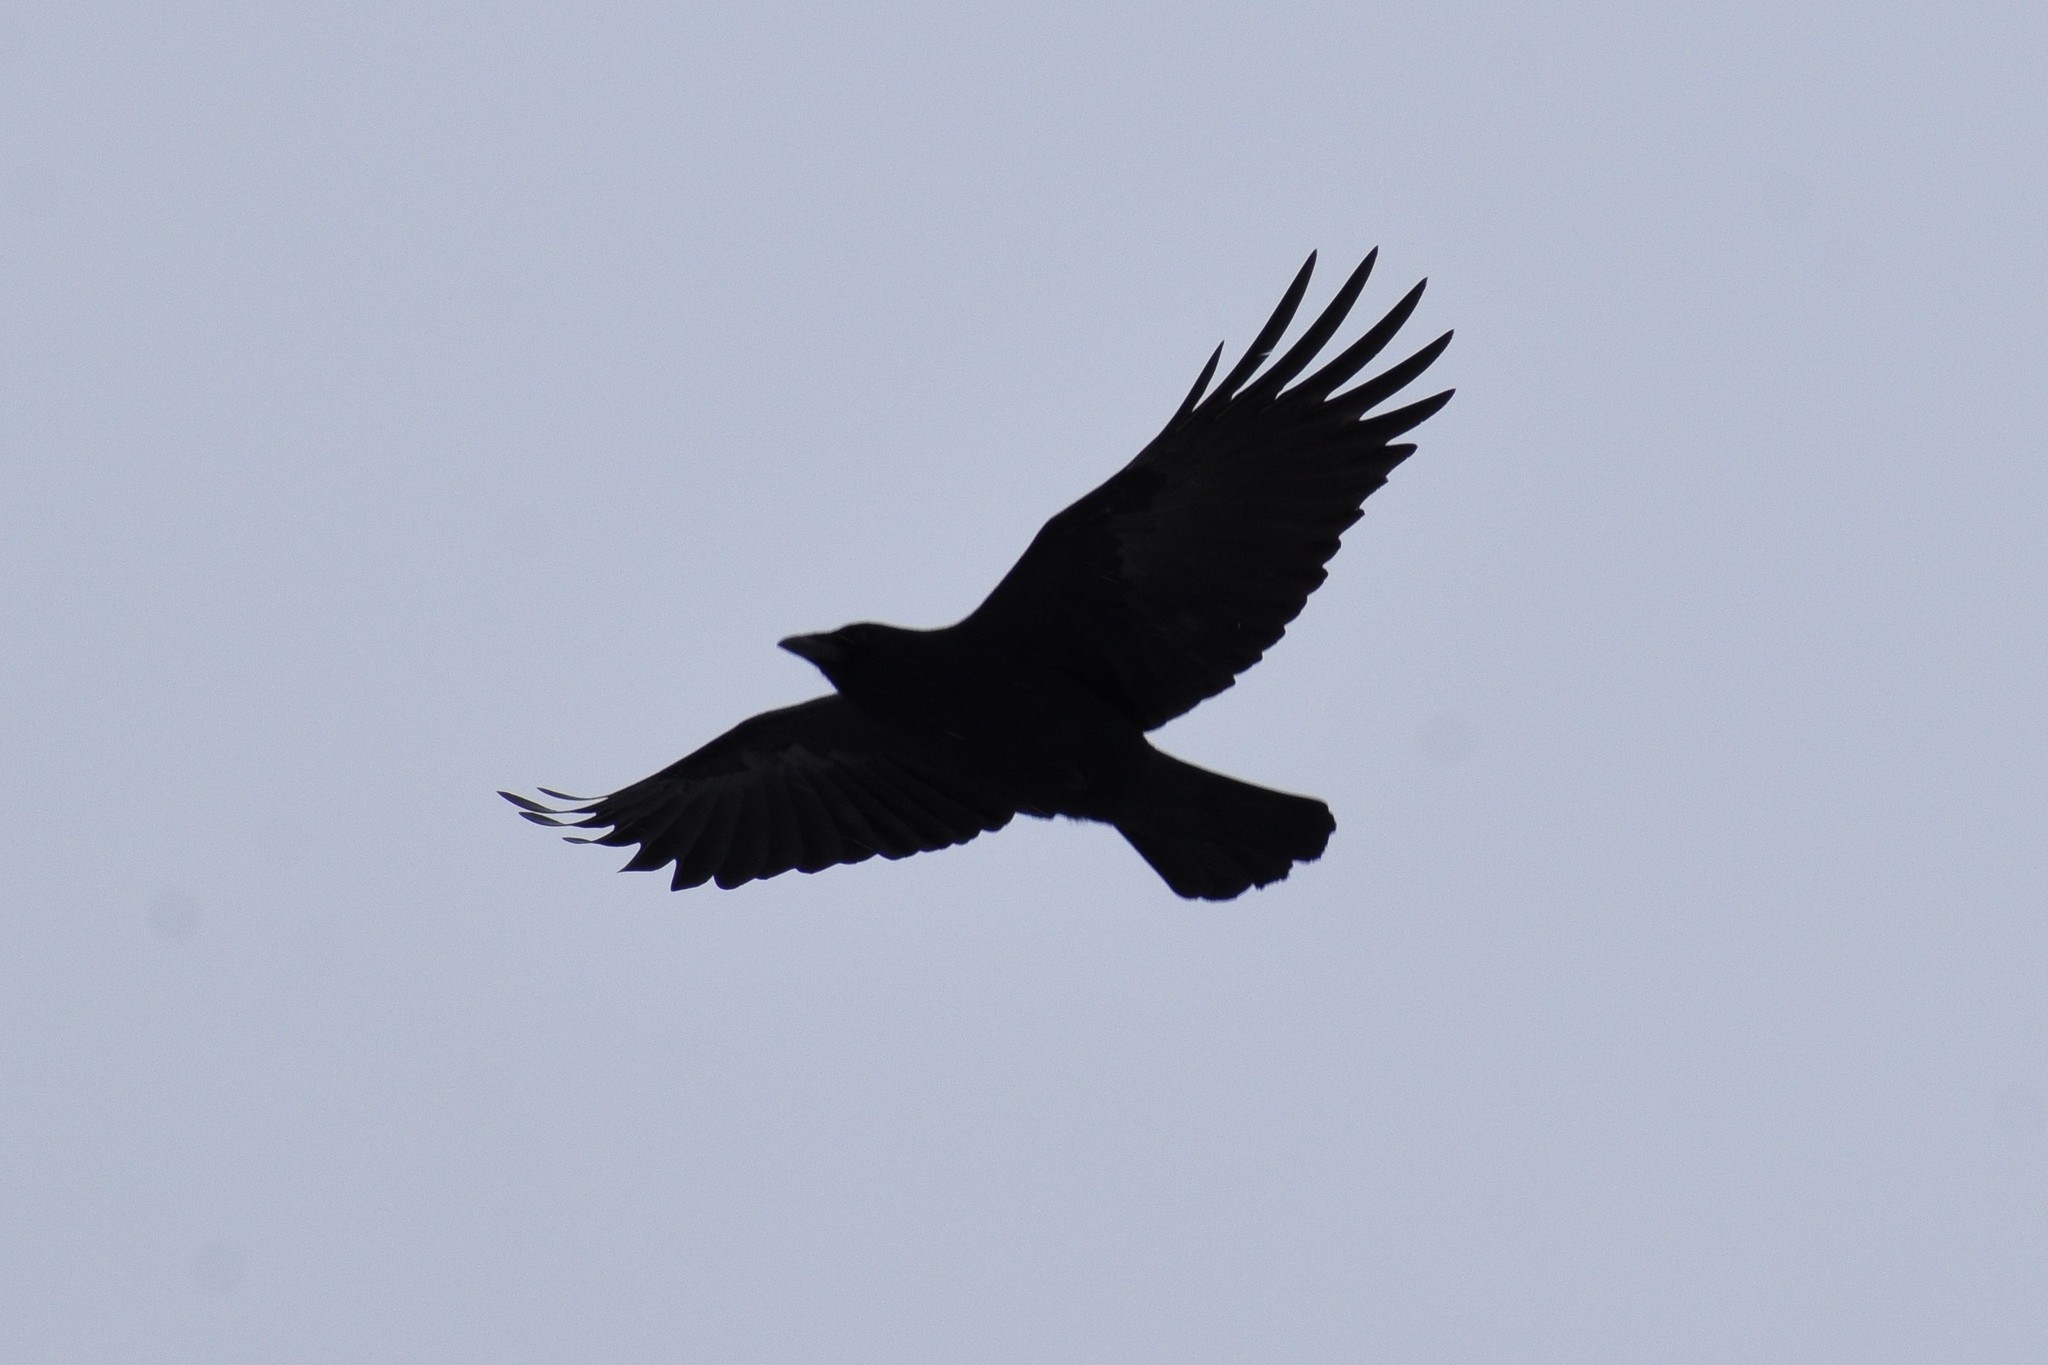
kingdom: Animalia
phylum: Chordata
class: Aves
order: Passeriformes
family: Corvidae
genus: Corvus
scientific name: Corvus brachyrhynchos
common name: American crow
